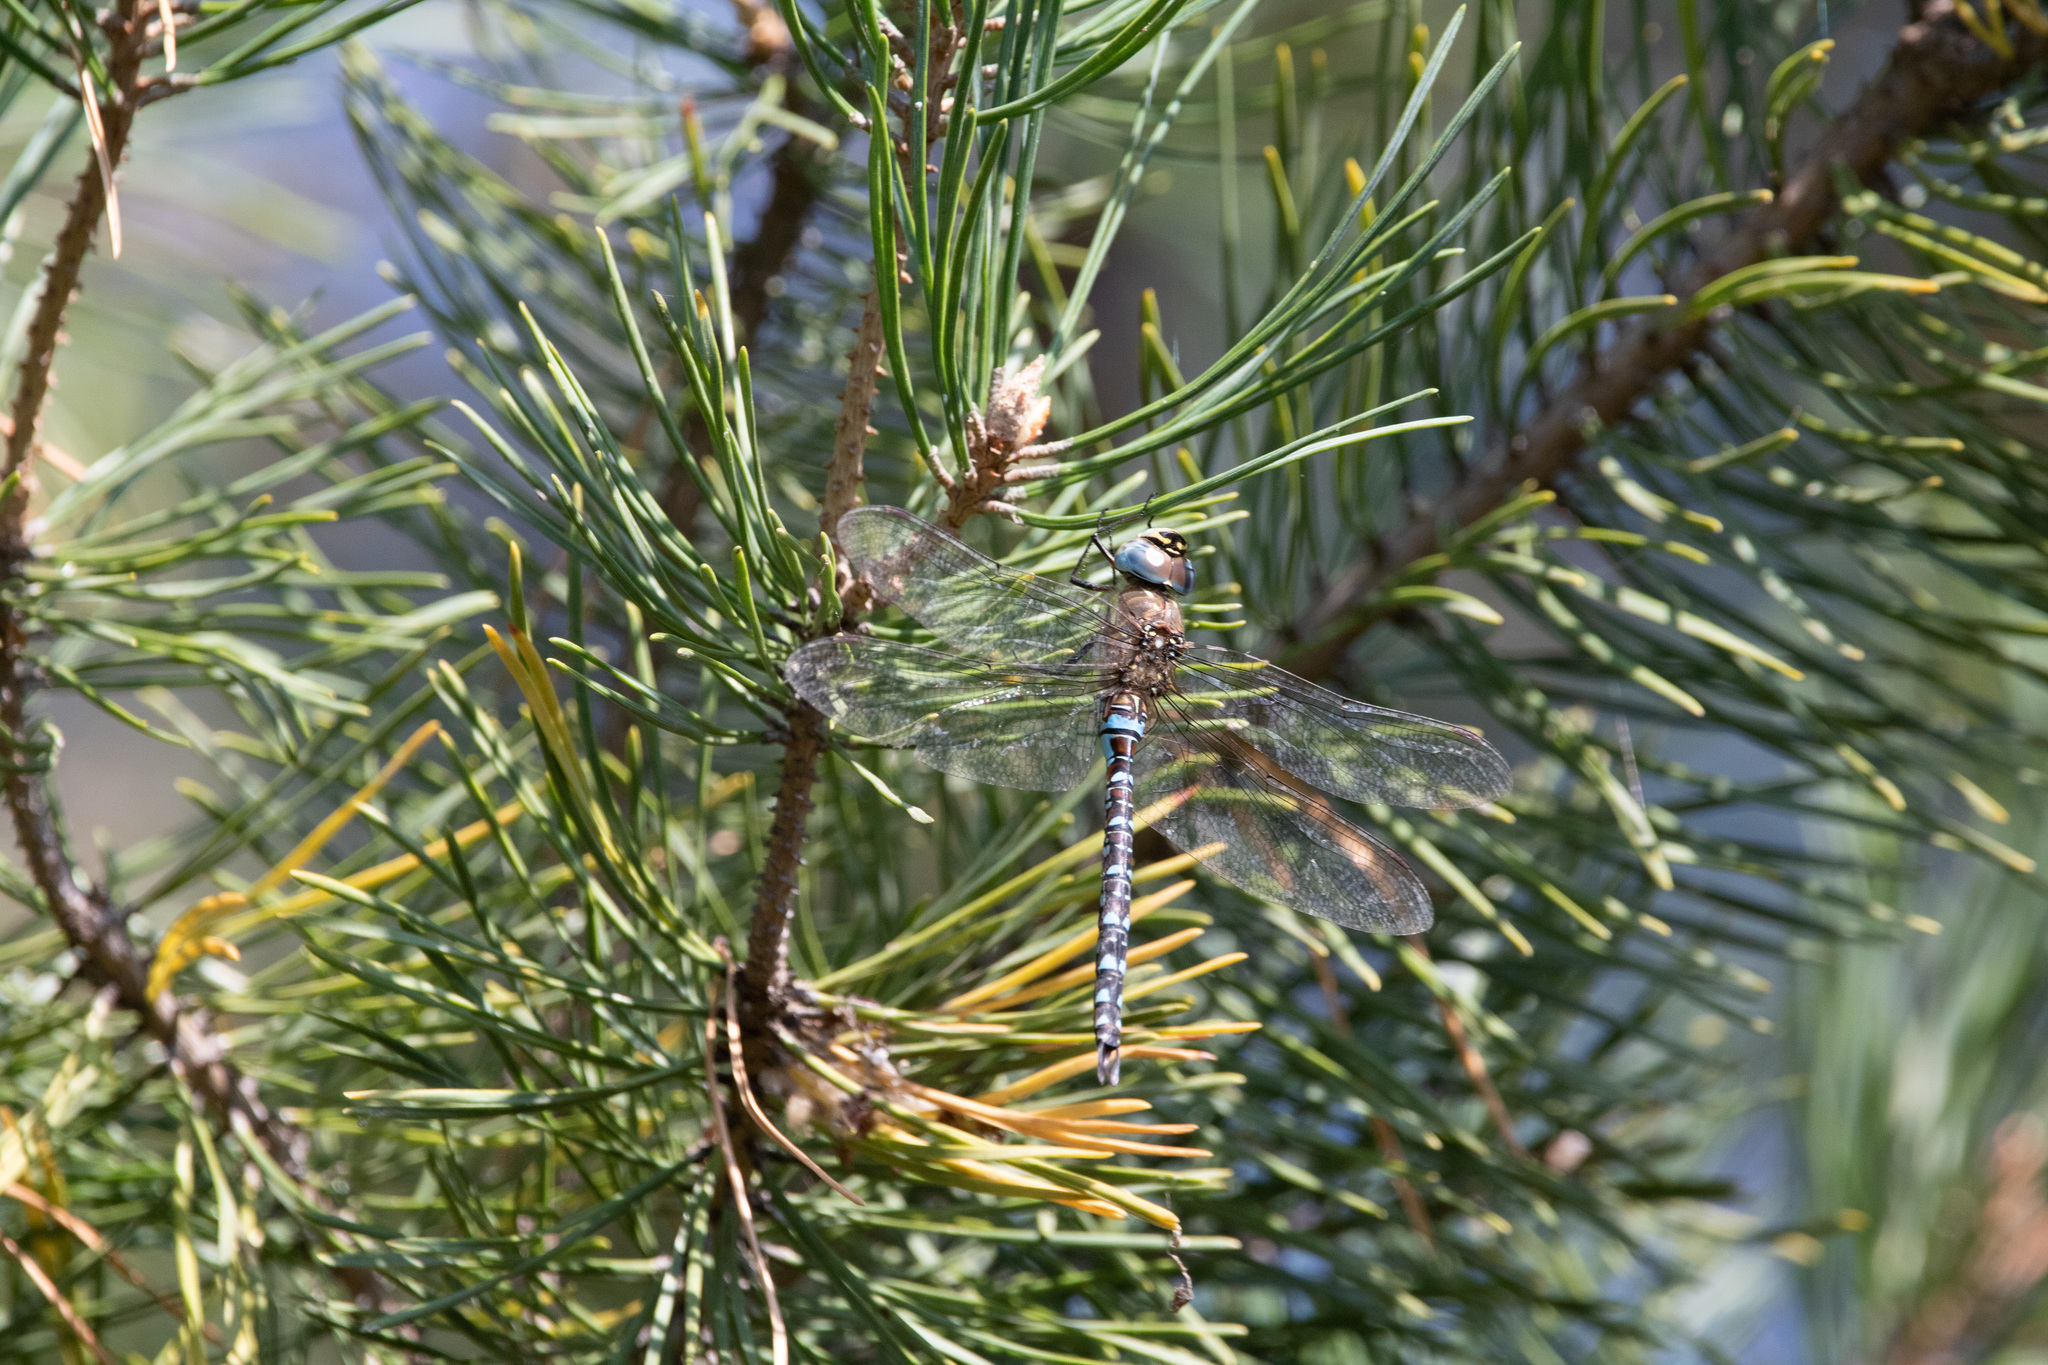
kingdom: Animalia
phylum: Arthropoda
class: Insecta
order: Odonata
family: Aeshnidae
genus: Aeshna
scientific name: Aeshna mixta
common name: Migrant hawker
